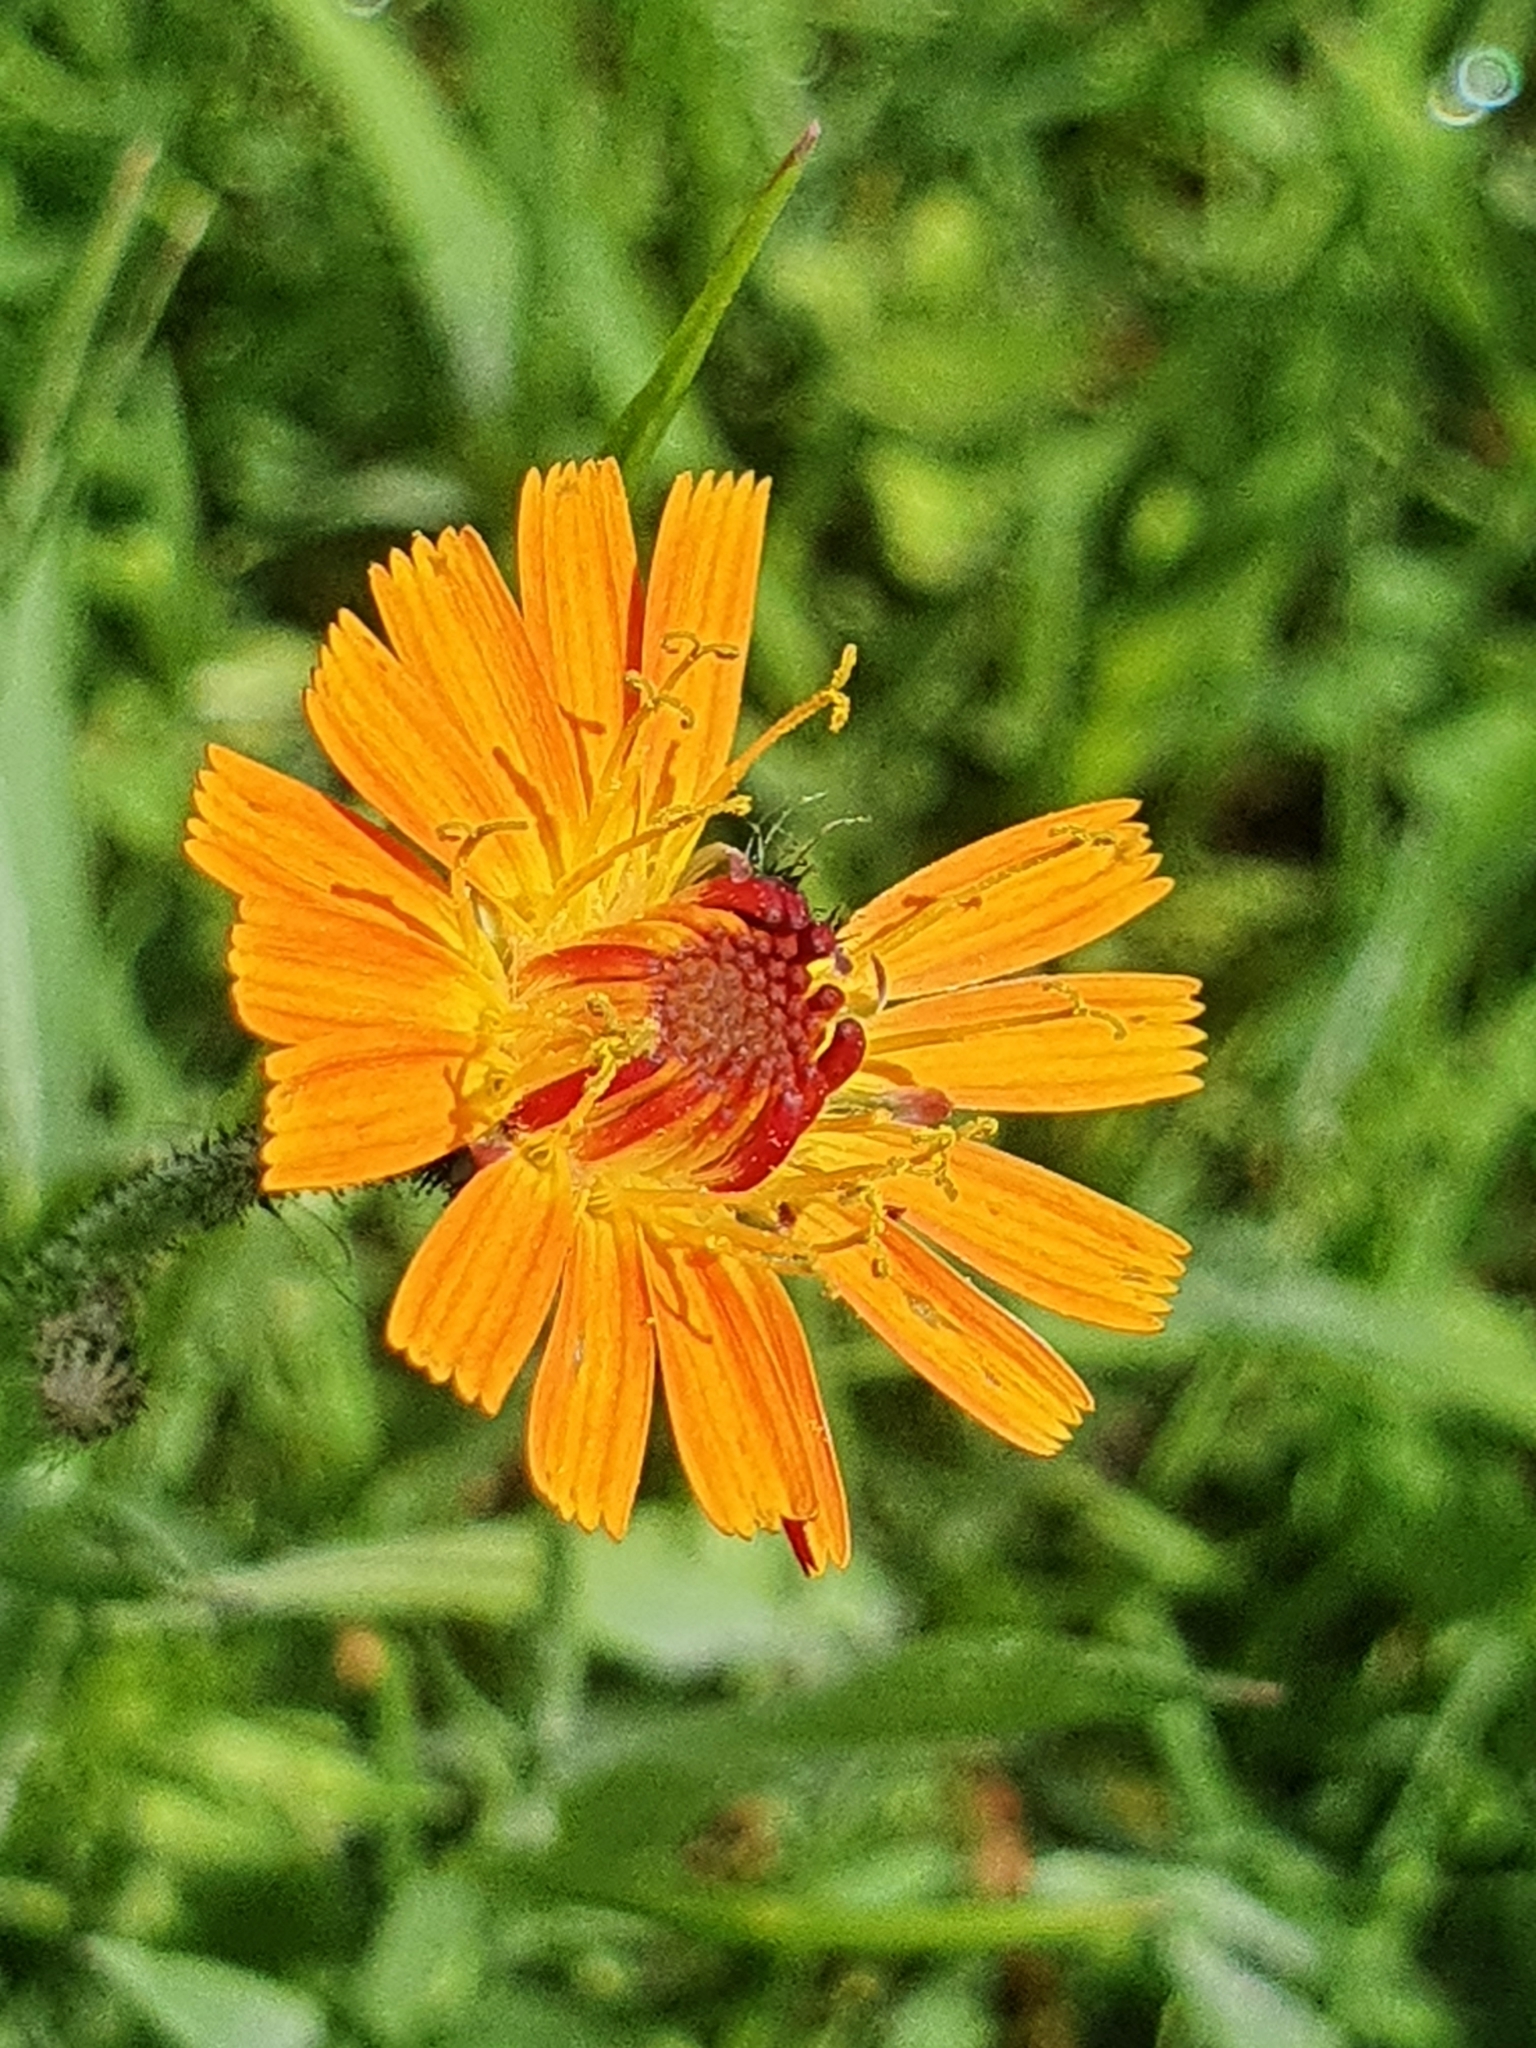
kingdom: Plantae
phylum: Tracheophyta
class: Magnoliopsida
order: Asterales
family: Asteraceae
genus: Pilosella
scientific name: Pilosella aurantiaca
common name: Fox-and-cubs
